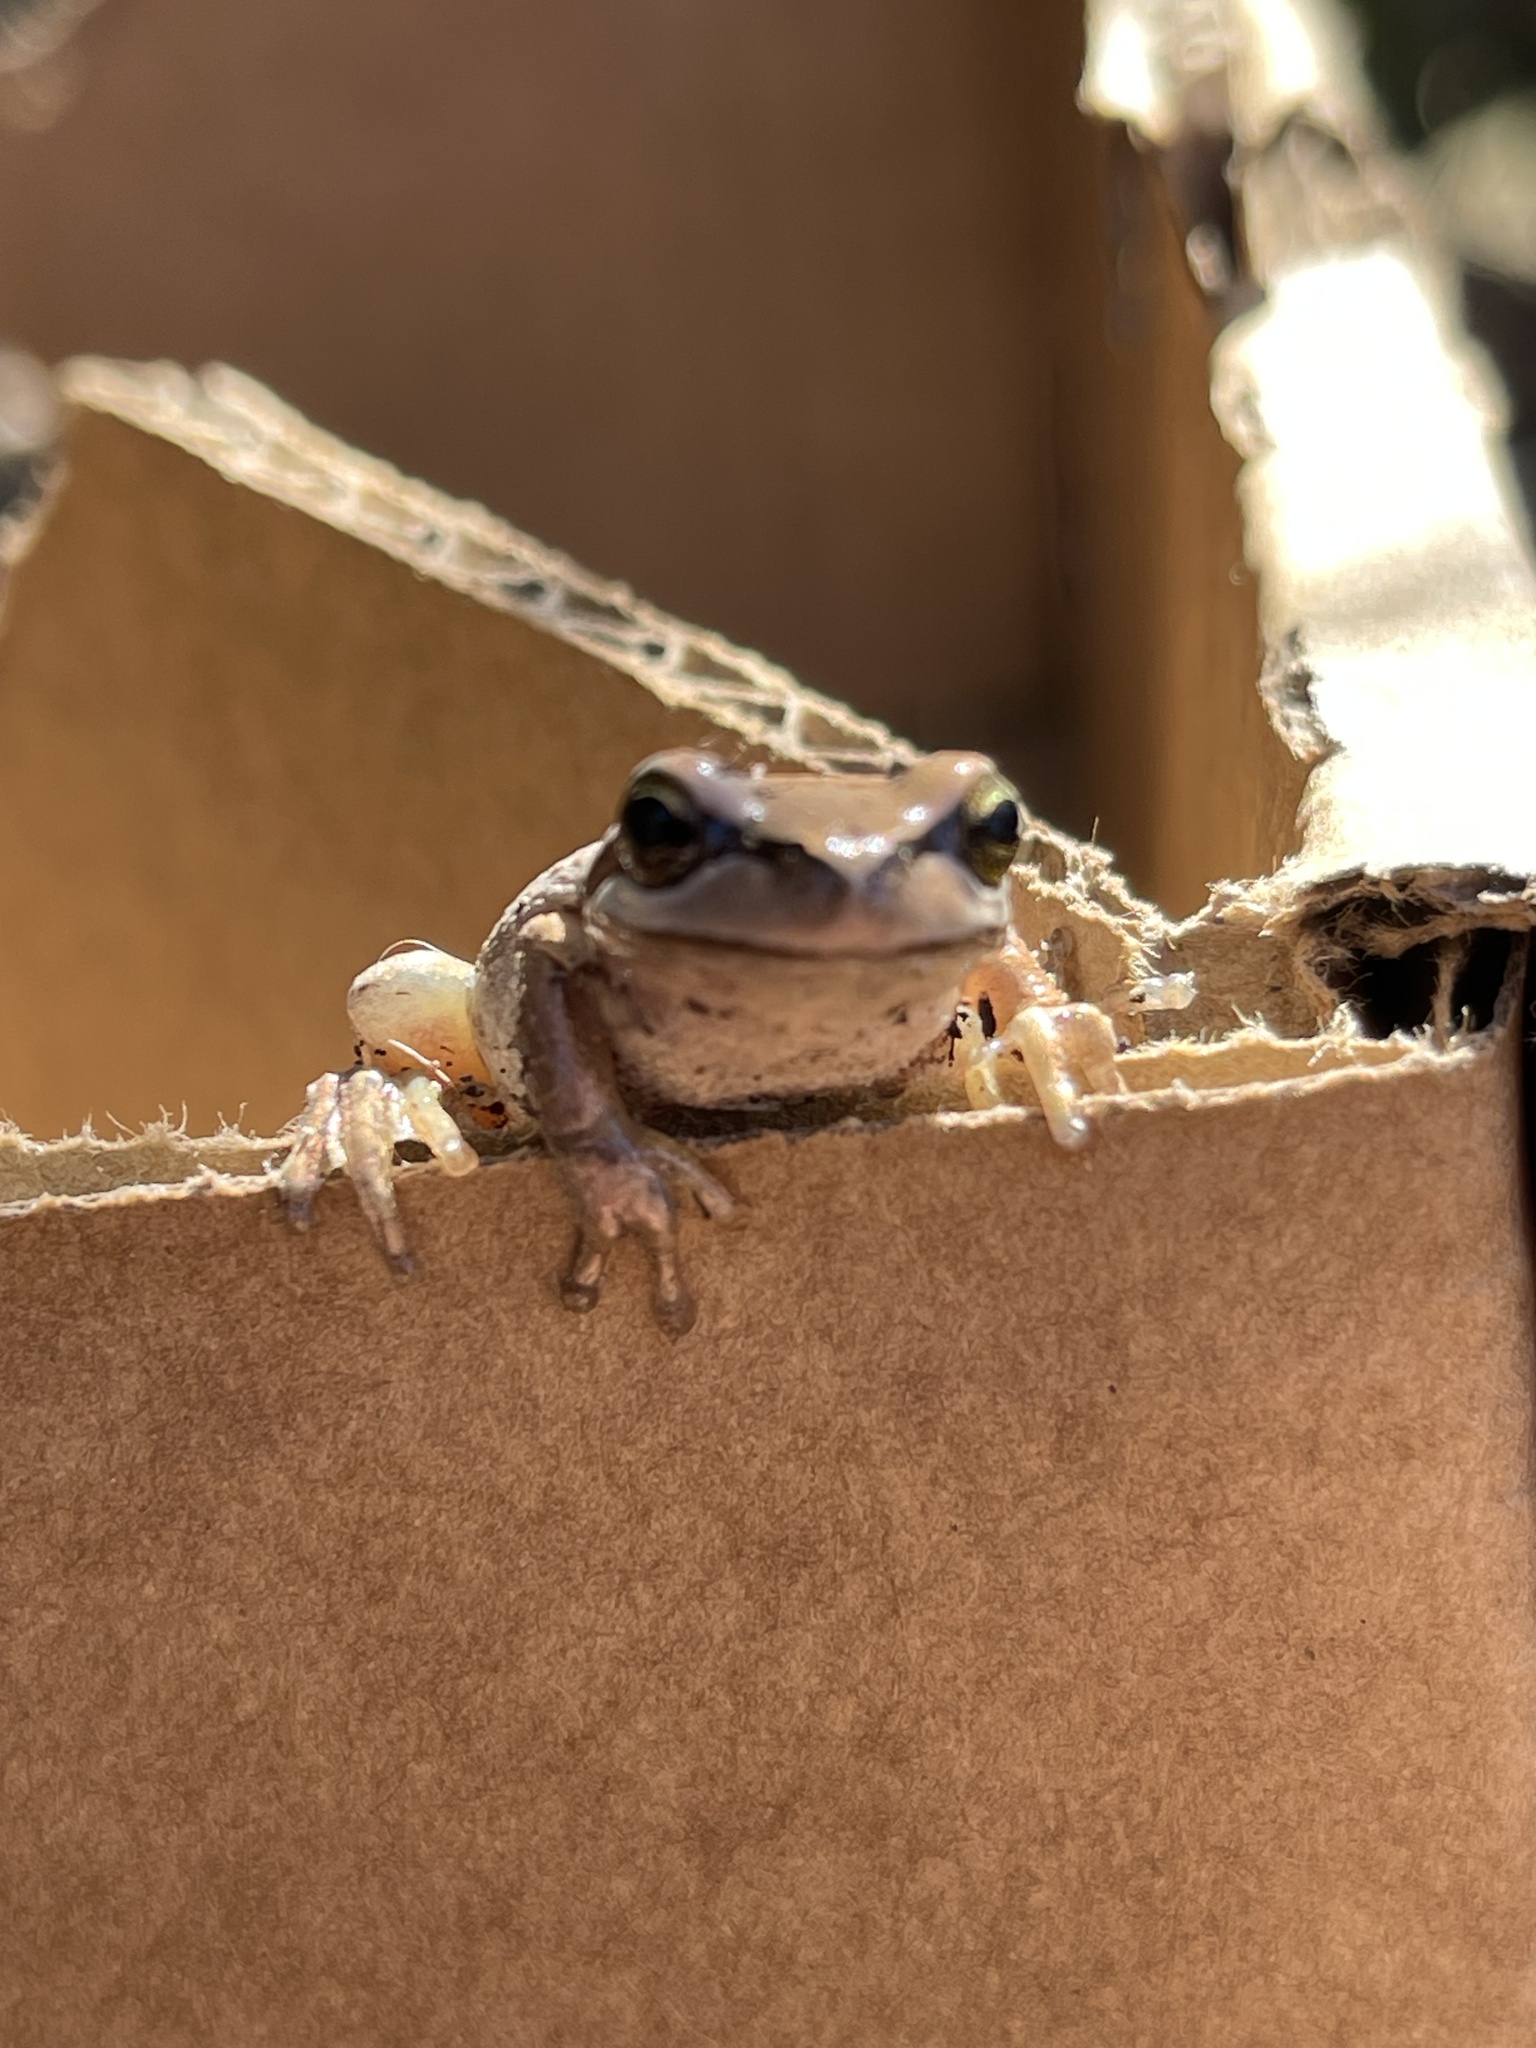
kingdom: Animalia
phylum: Chordata
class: Amphibia
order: Anura
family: Pelodryadidae
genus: Litoria
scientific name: Litoria ewingii
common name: Southern brown tree frog
